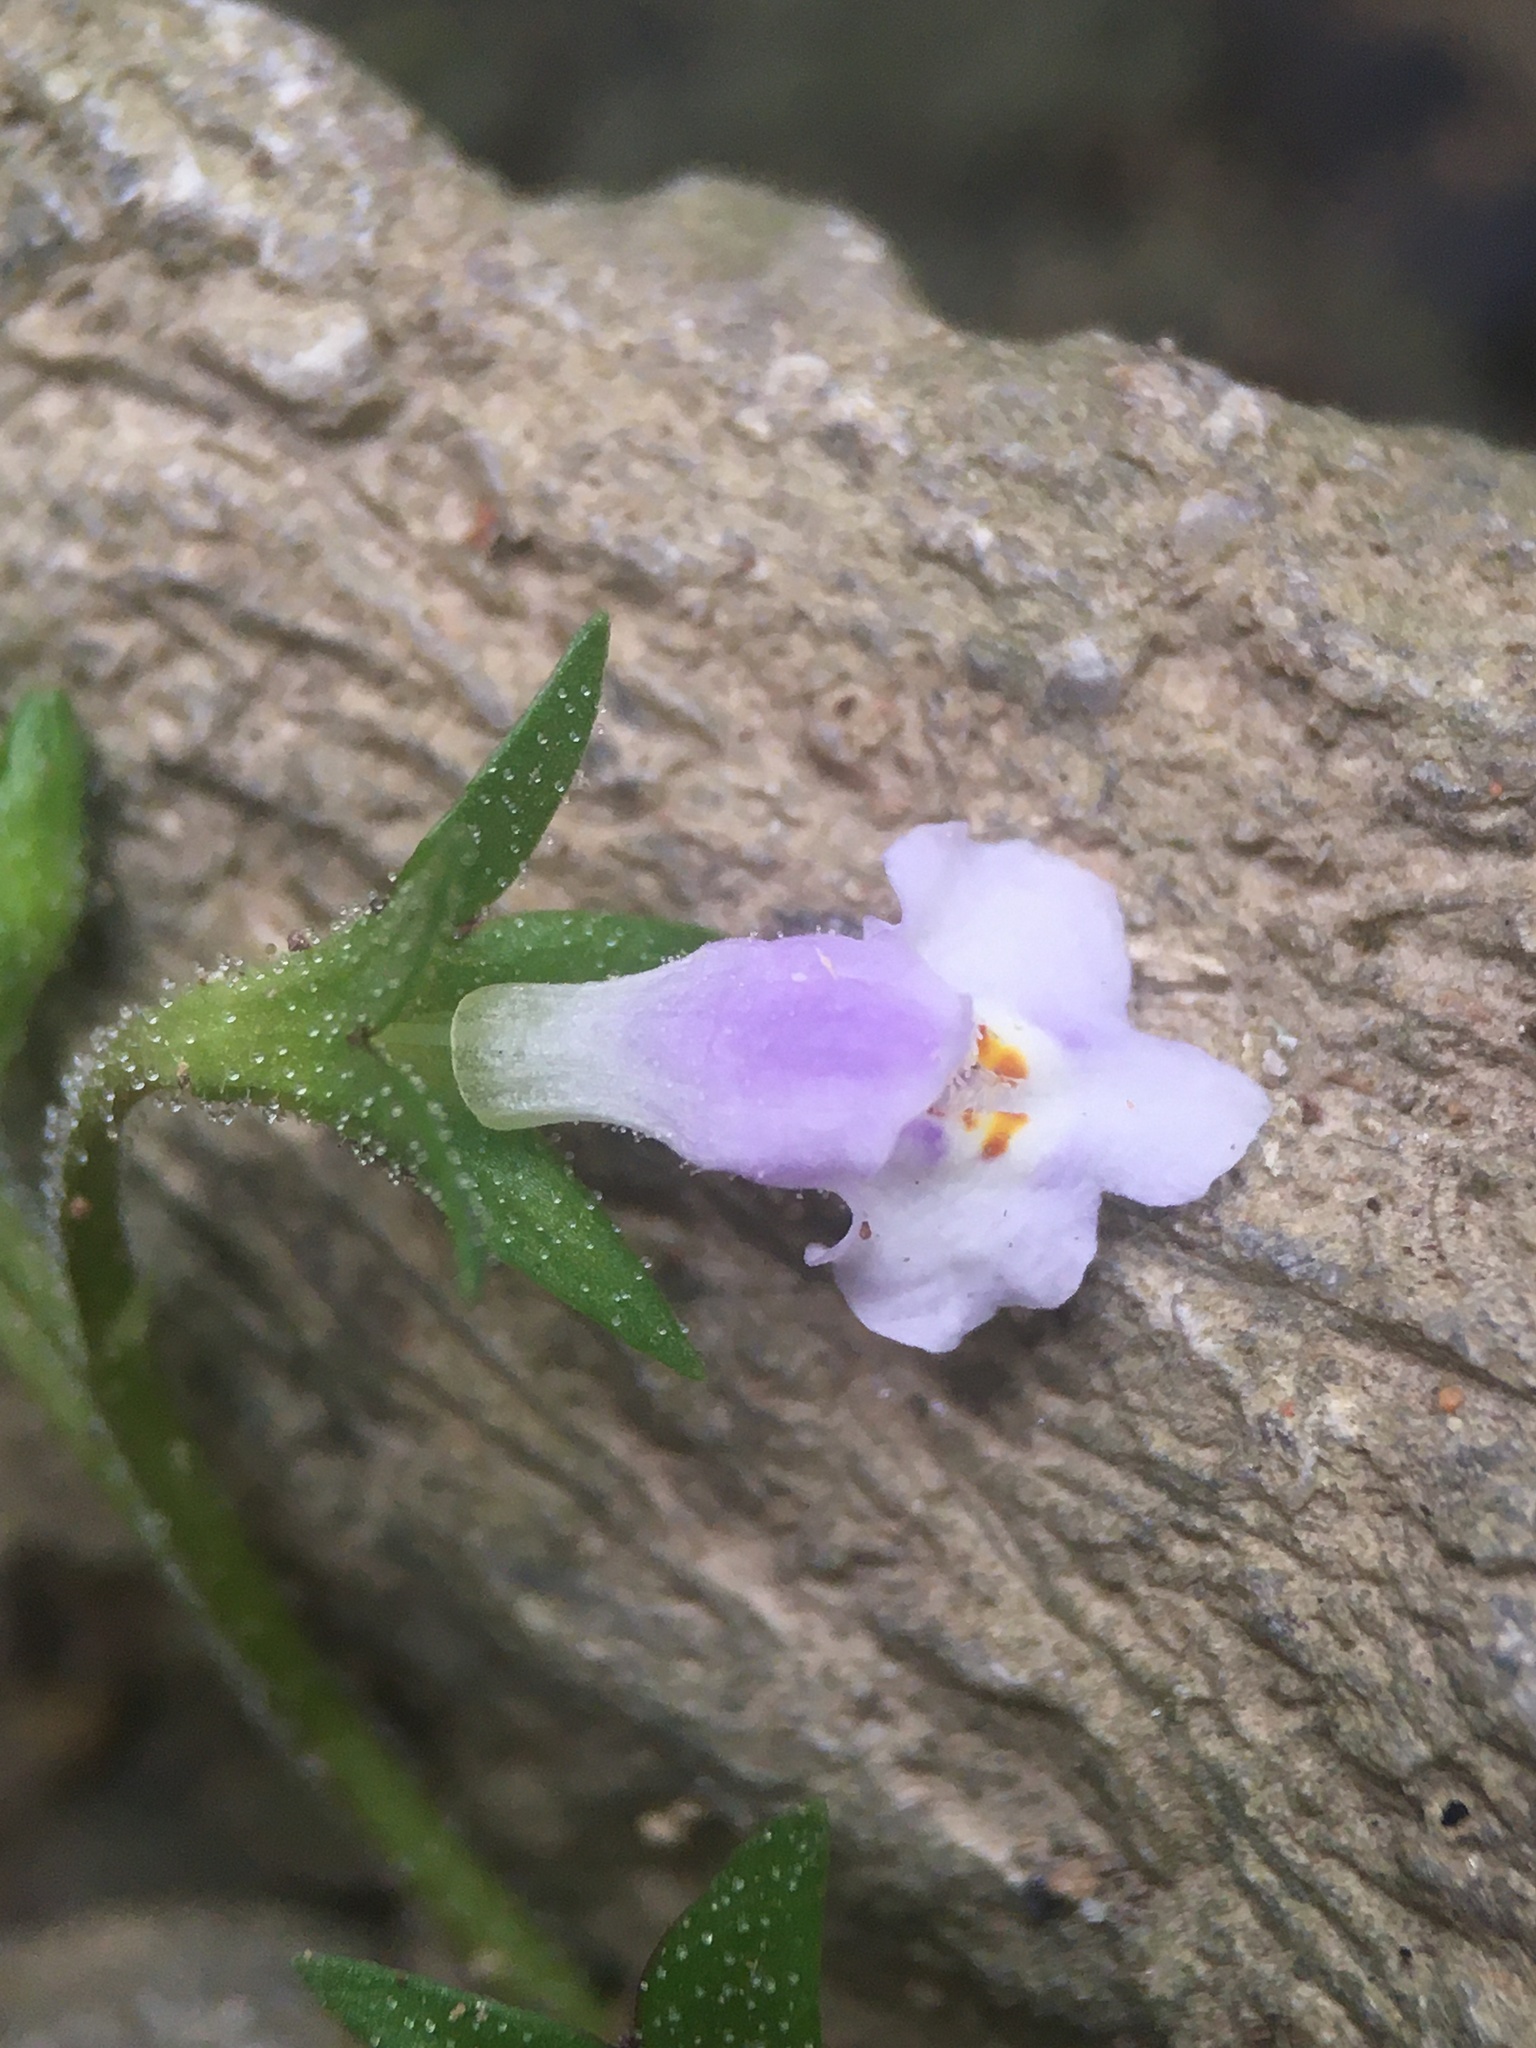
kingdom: Plantae
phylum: Tracheophyta
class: Magnoliopsida
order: Lamiales
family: Mazaceae
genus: Mazus
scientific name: Mazus pumilus
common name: Japanese mazus
